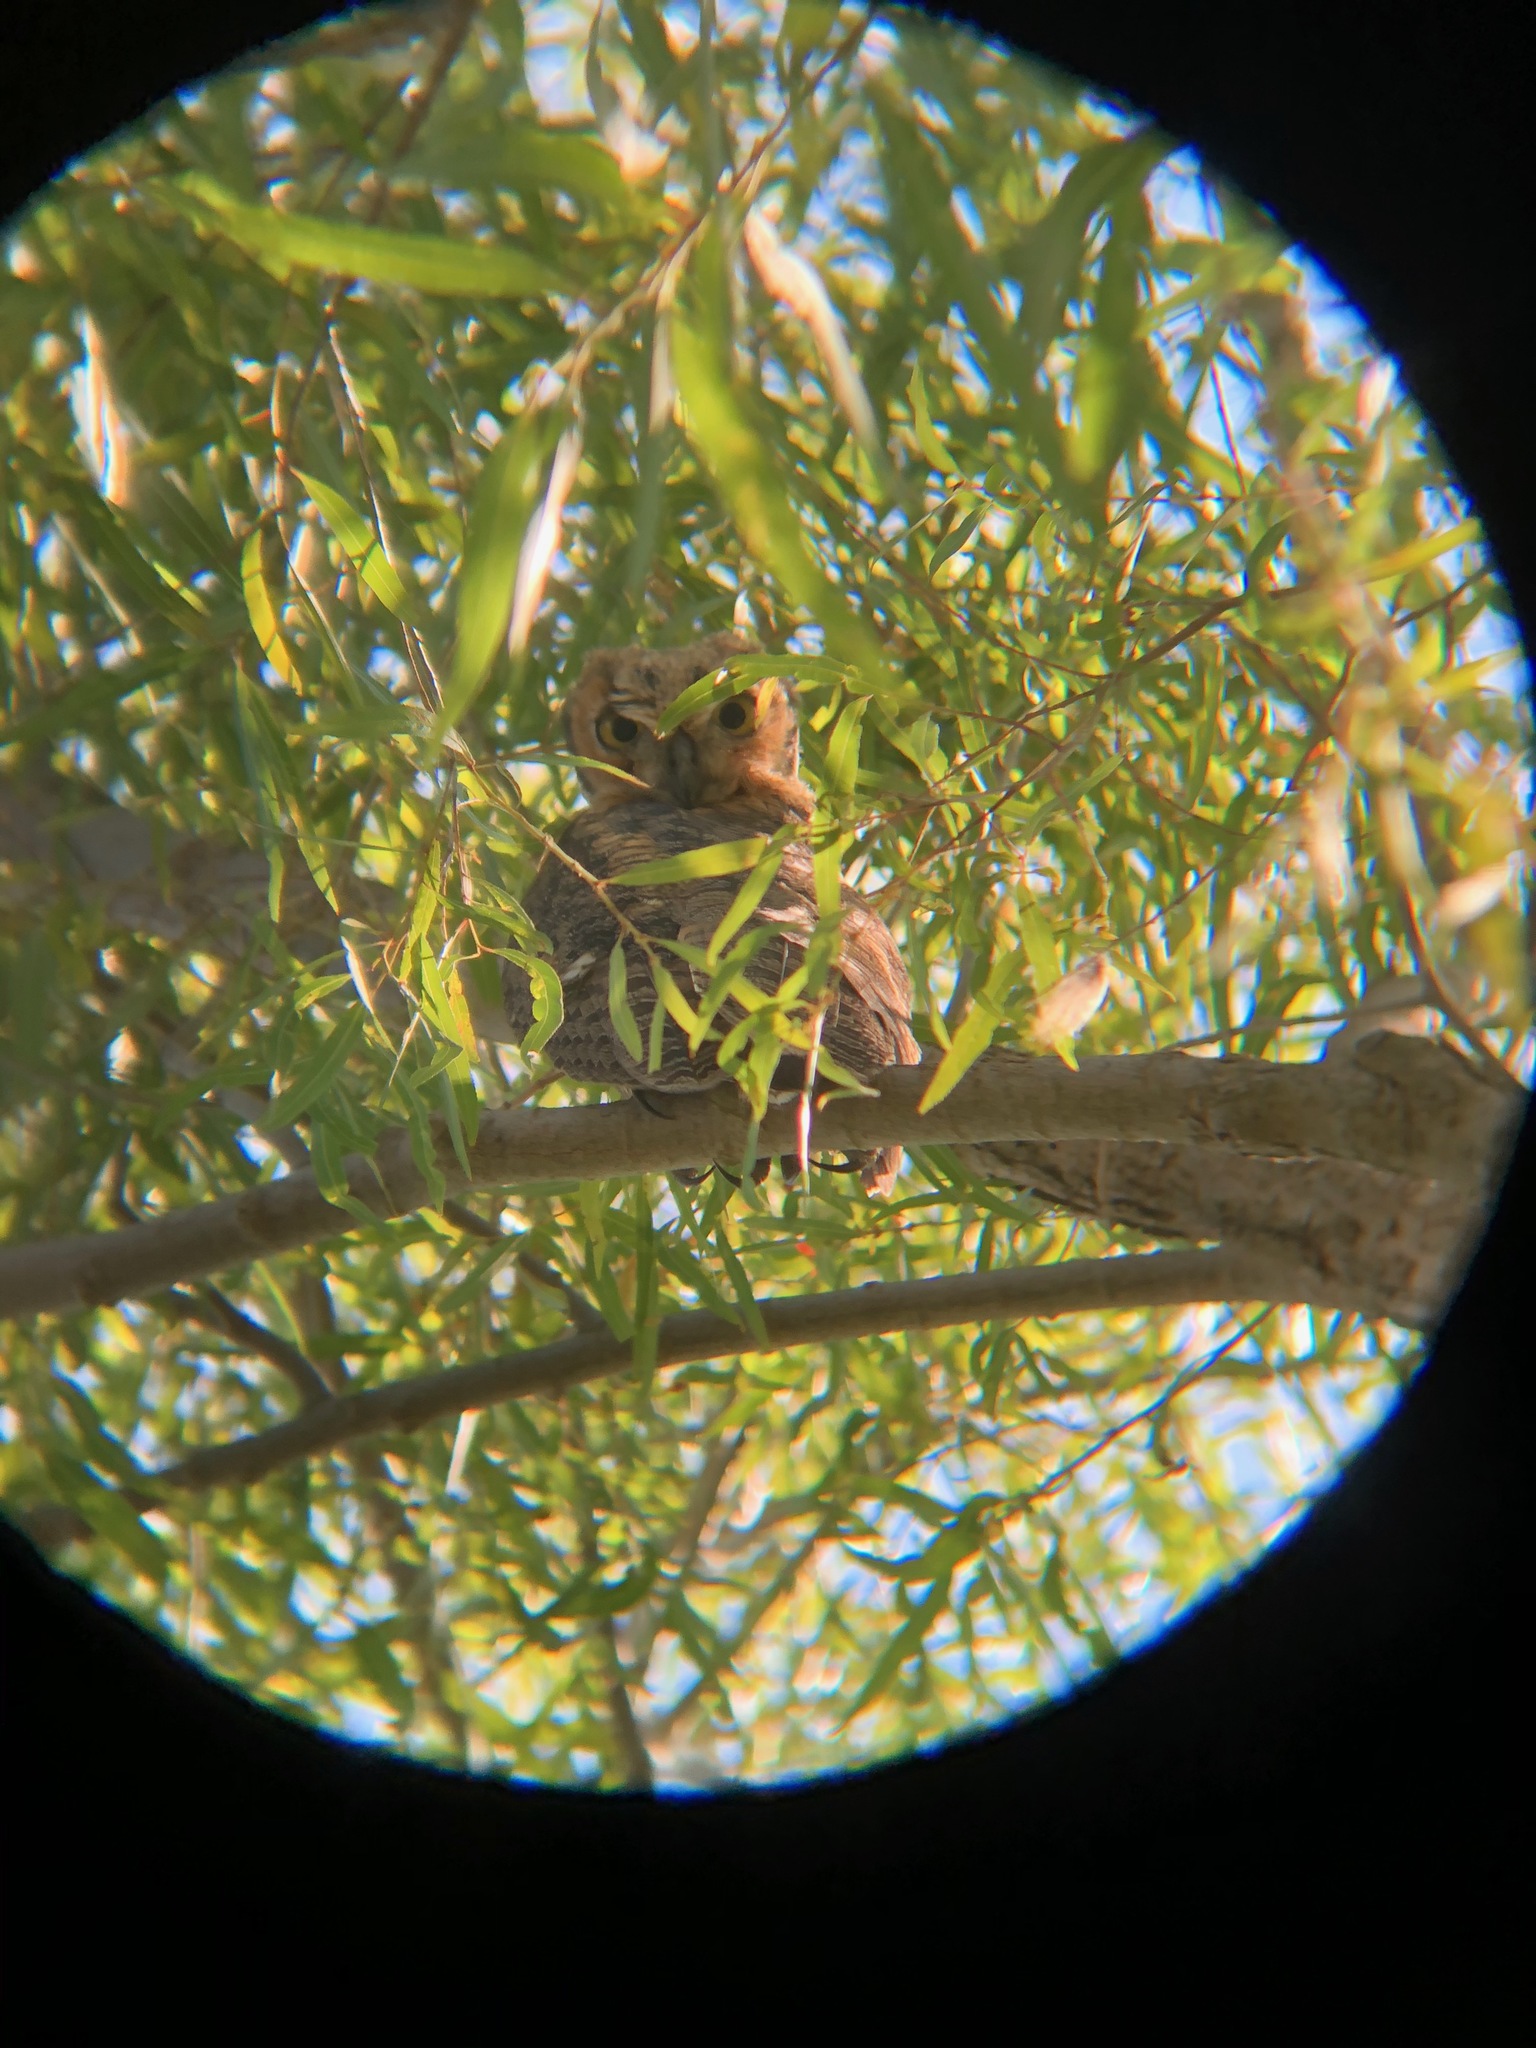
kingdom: Animalia
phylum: Chordata
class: Aves
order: Strigiformes
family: Strigidae
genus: Bubo
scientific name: Bubo virginianus
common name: Great horned owl
